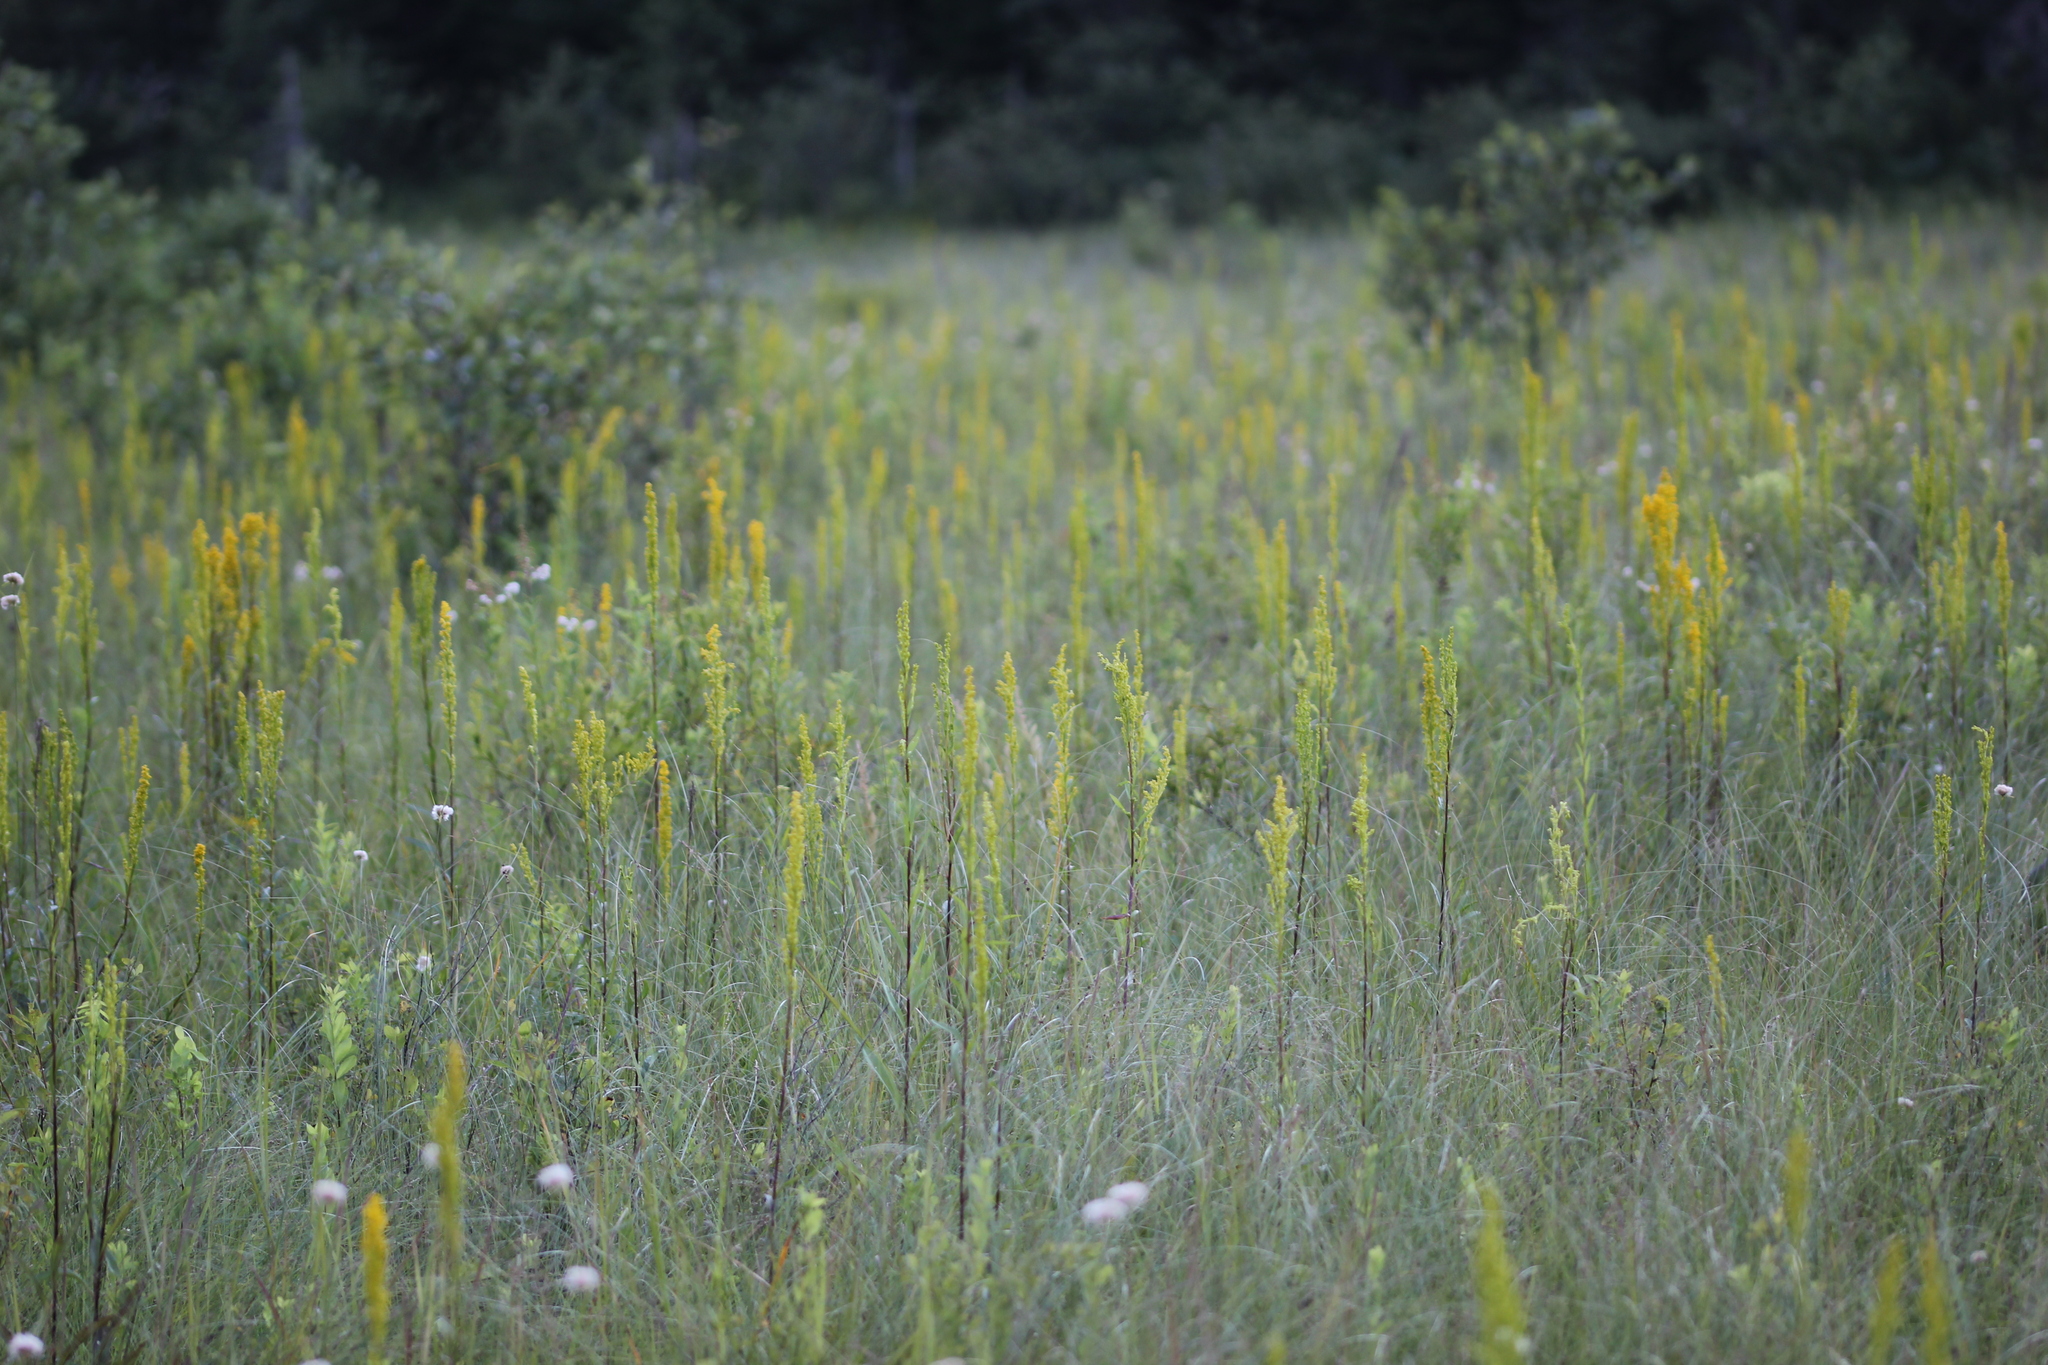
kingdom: Plantae
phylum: Tracheophyta
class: Magnoliopsida
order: Asterales
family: Asteraceae
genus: Solidago
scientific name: Solidago uliginosa
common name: Bog goldenrod
